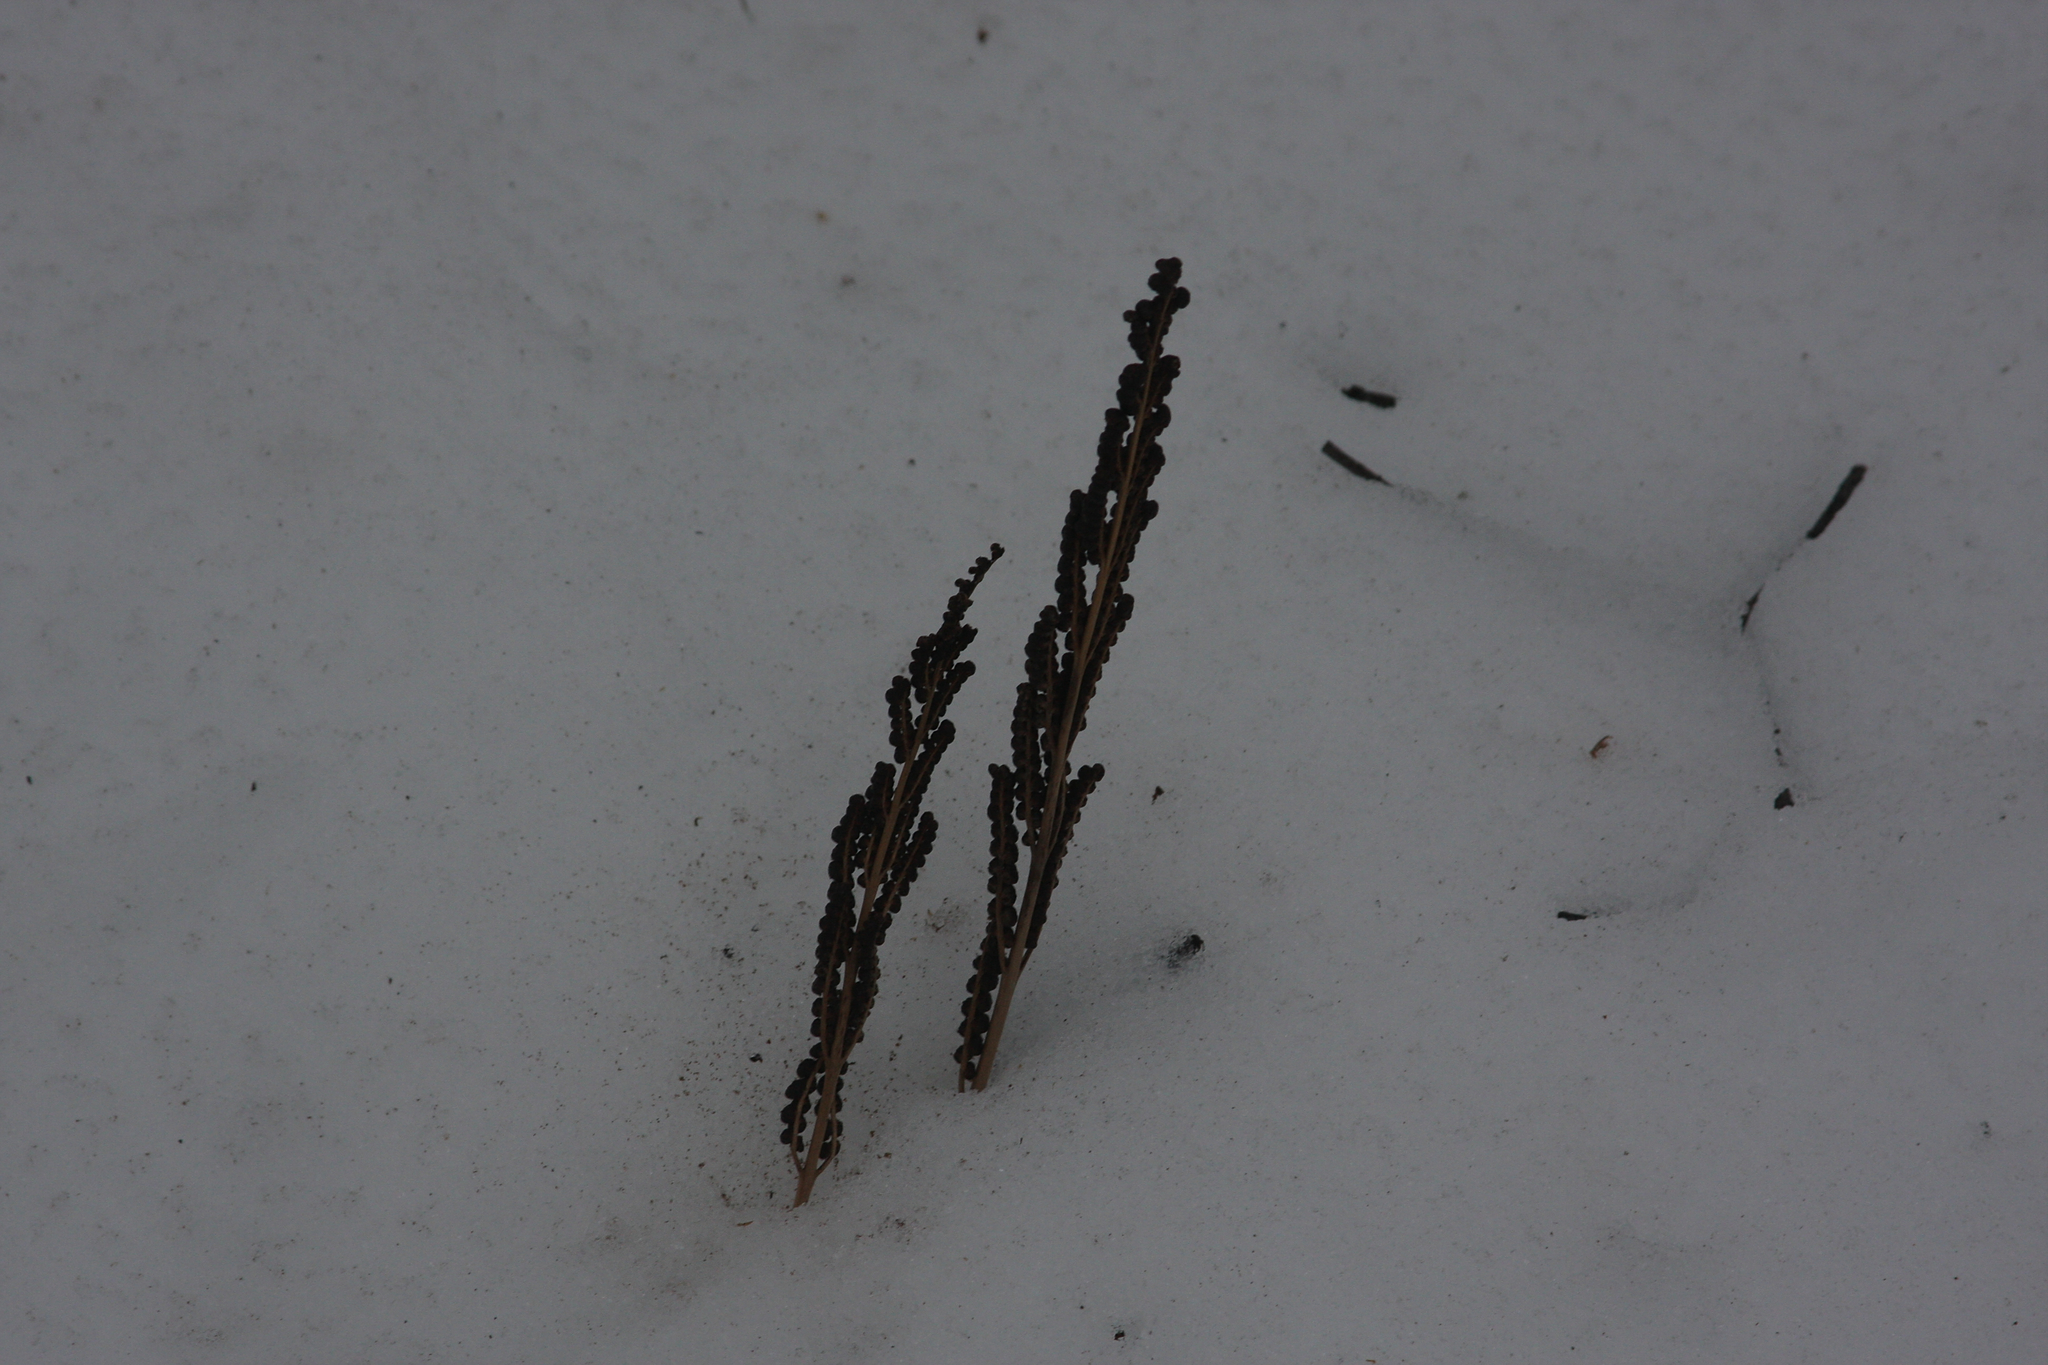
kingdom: Plantae
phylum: Tracheophyta
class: Polypodiopsida
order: Polypodiales
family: Onocleaceae
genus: Onoclea
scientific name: Onoclea sensibilis
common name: Sensitive fern
